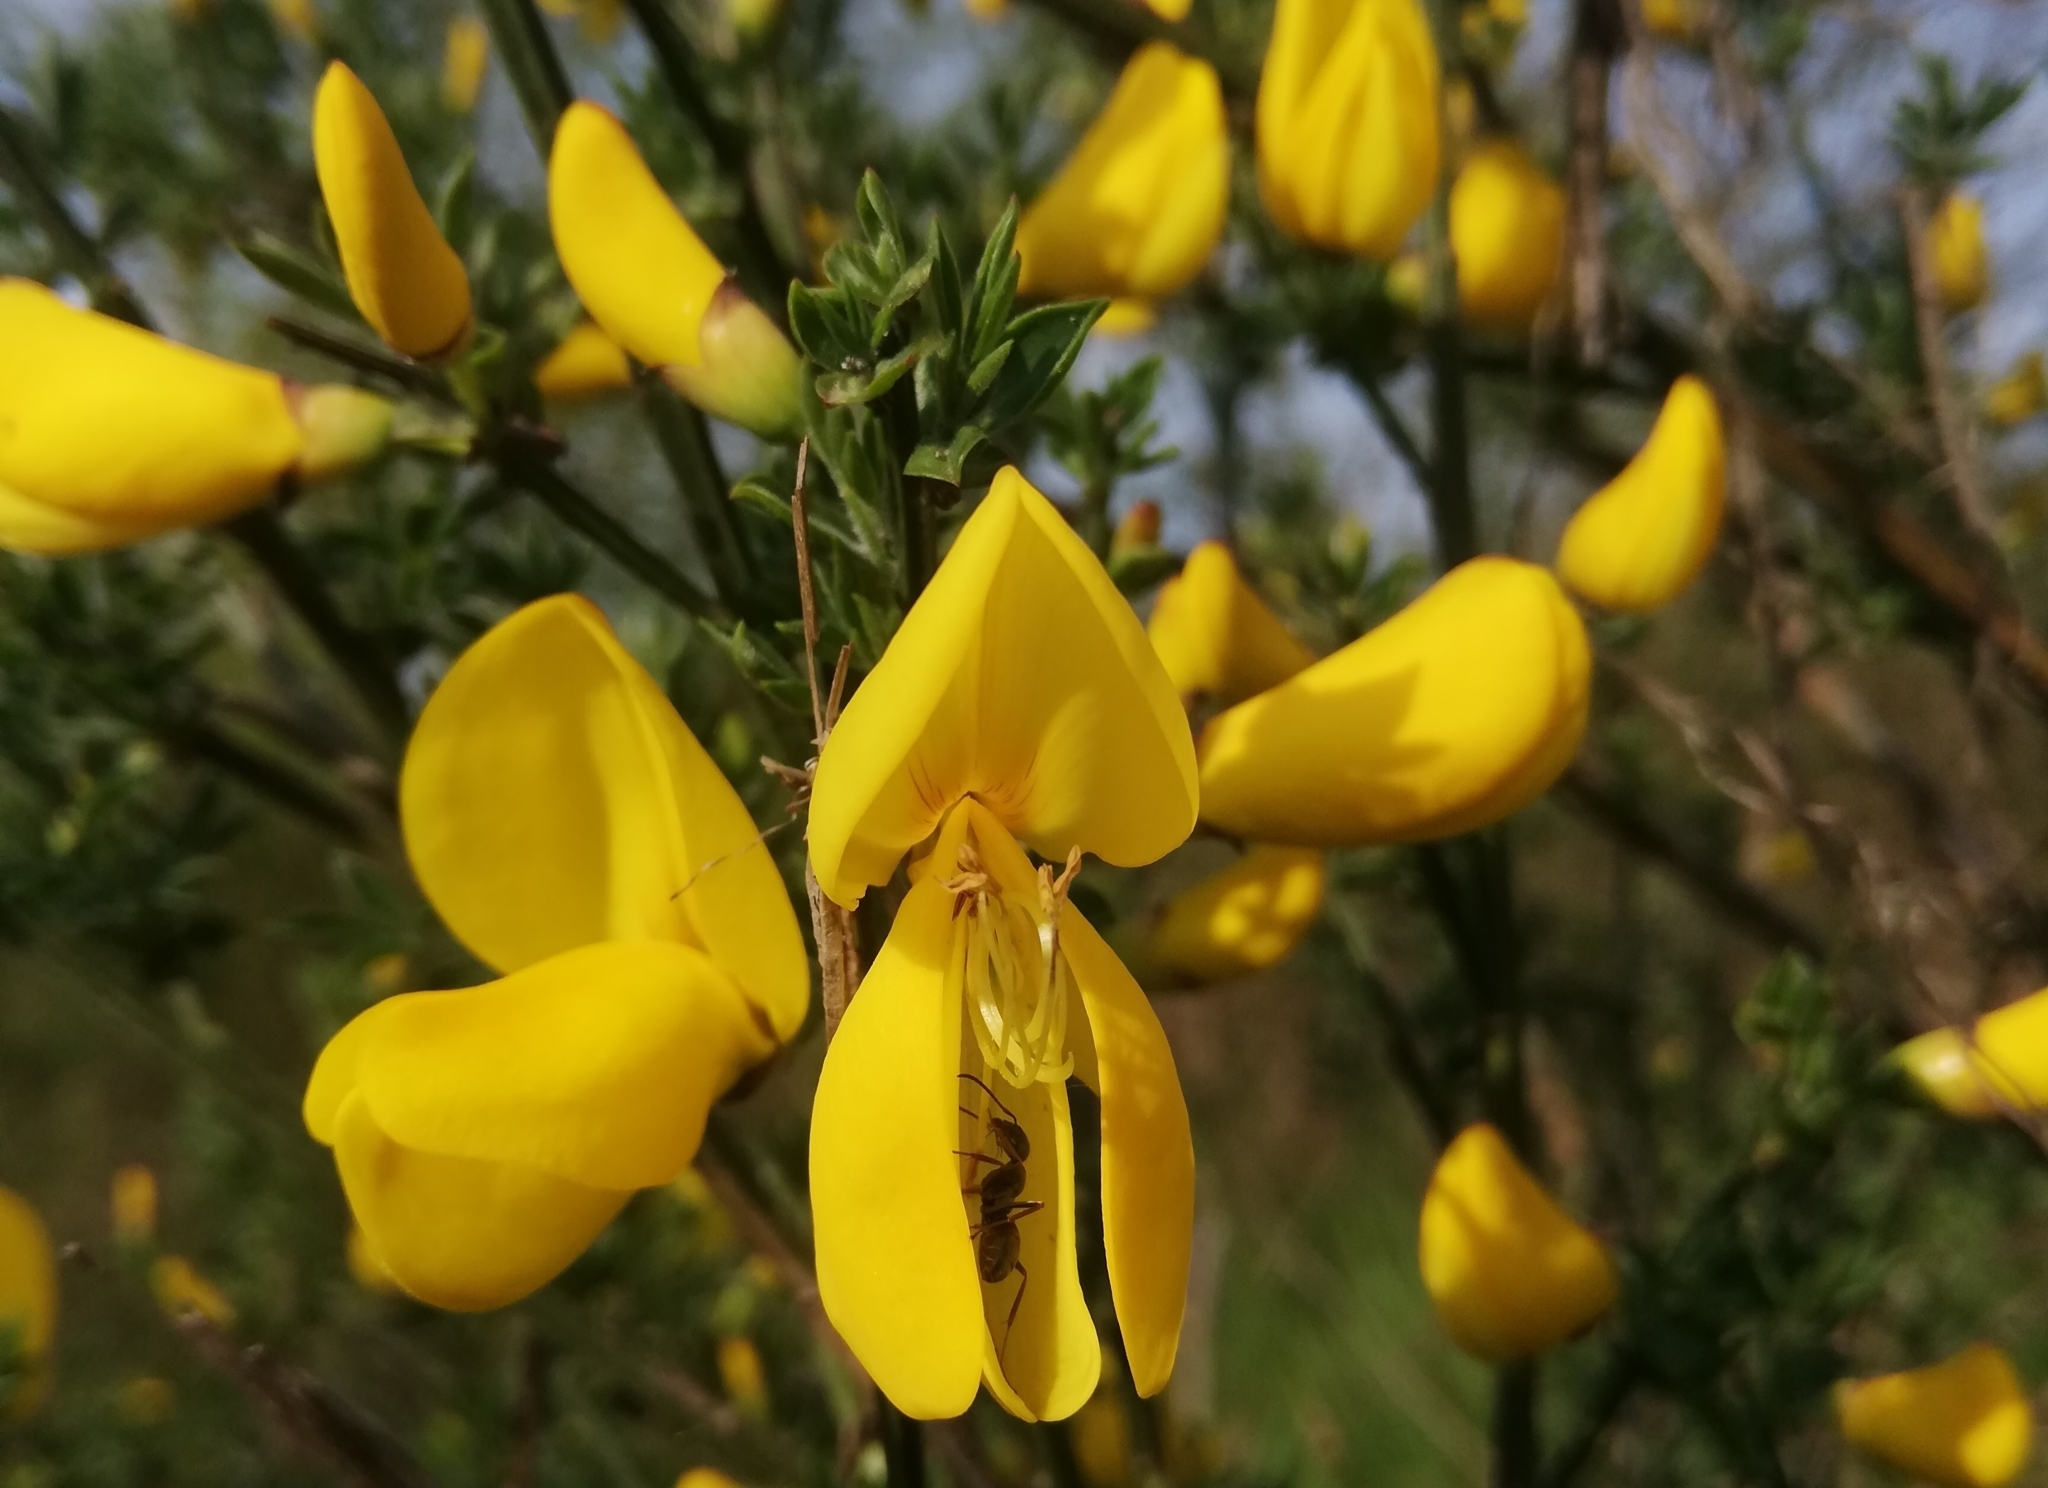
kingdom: Plantae
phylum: Tracheophyta
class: Magnoliopsida
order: Fabales
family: Fabaceae
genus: Cytisus
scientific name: Cytisus scoparius
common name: Scotch broom
